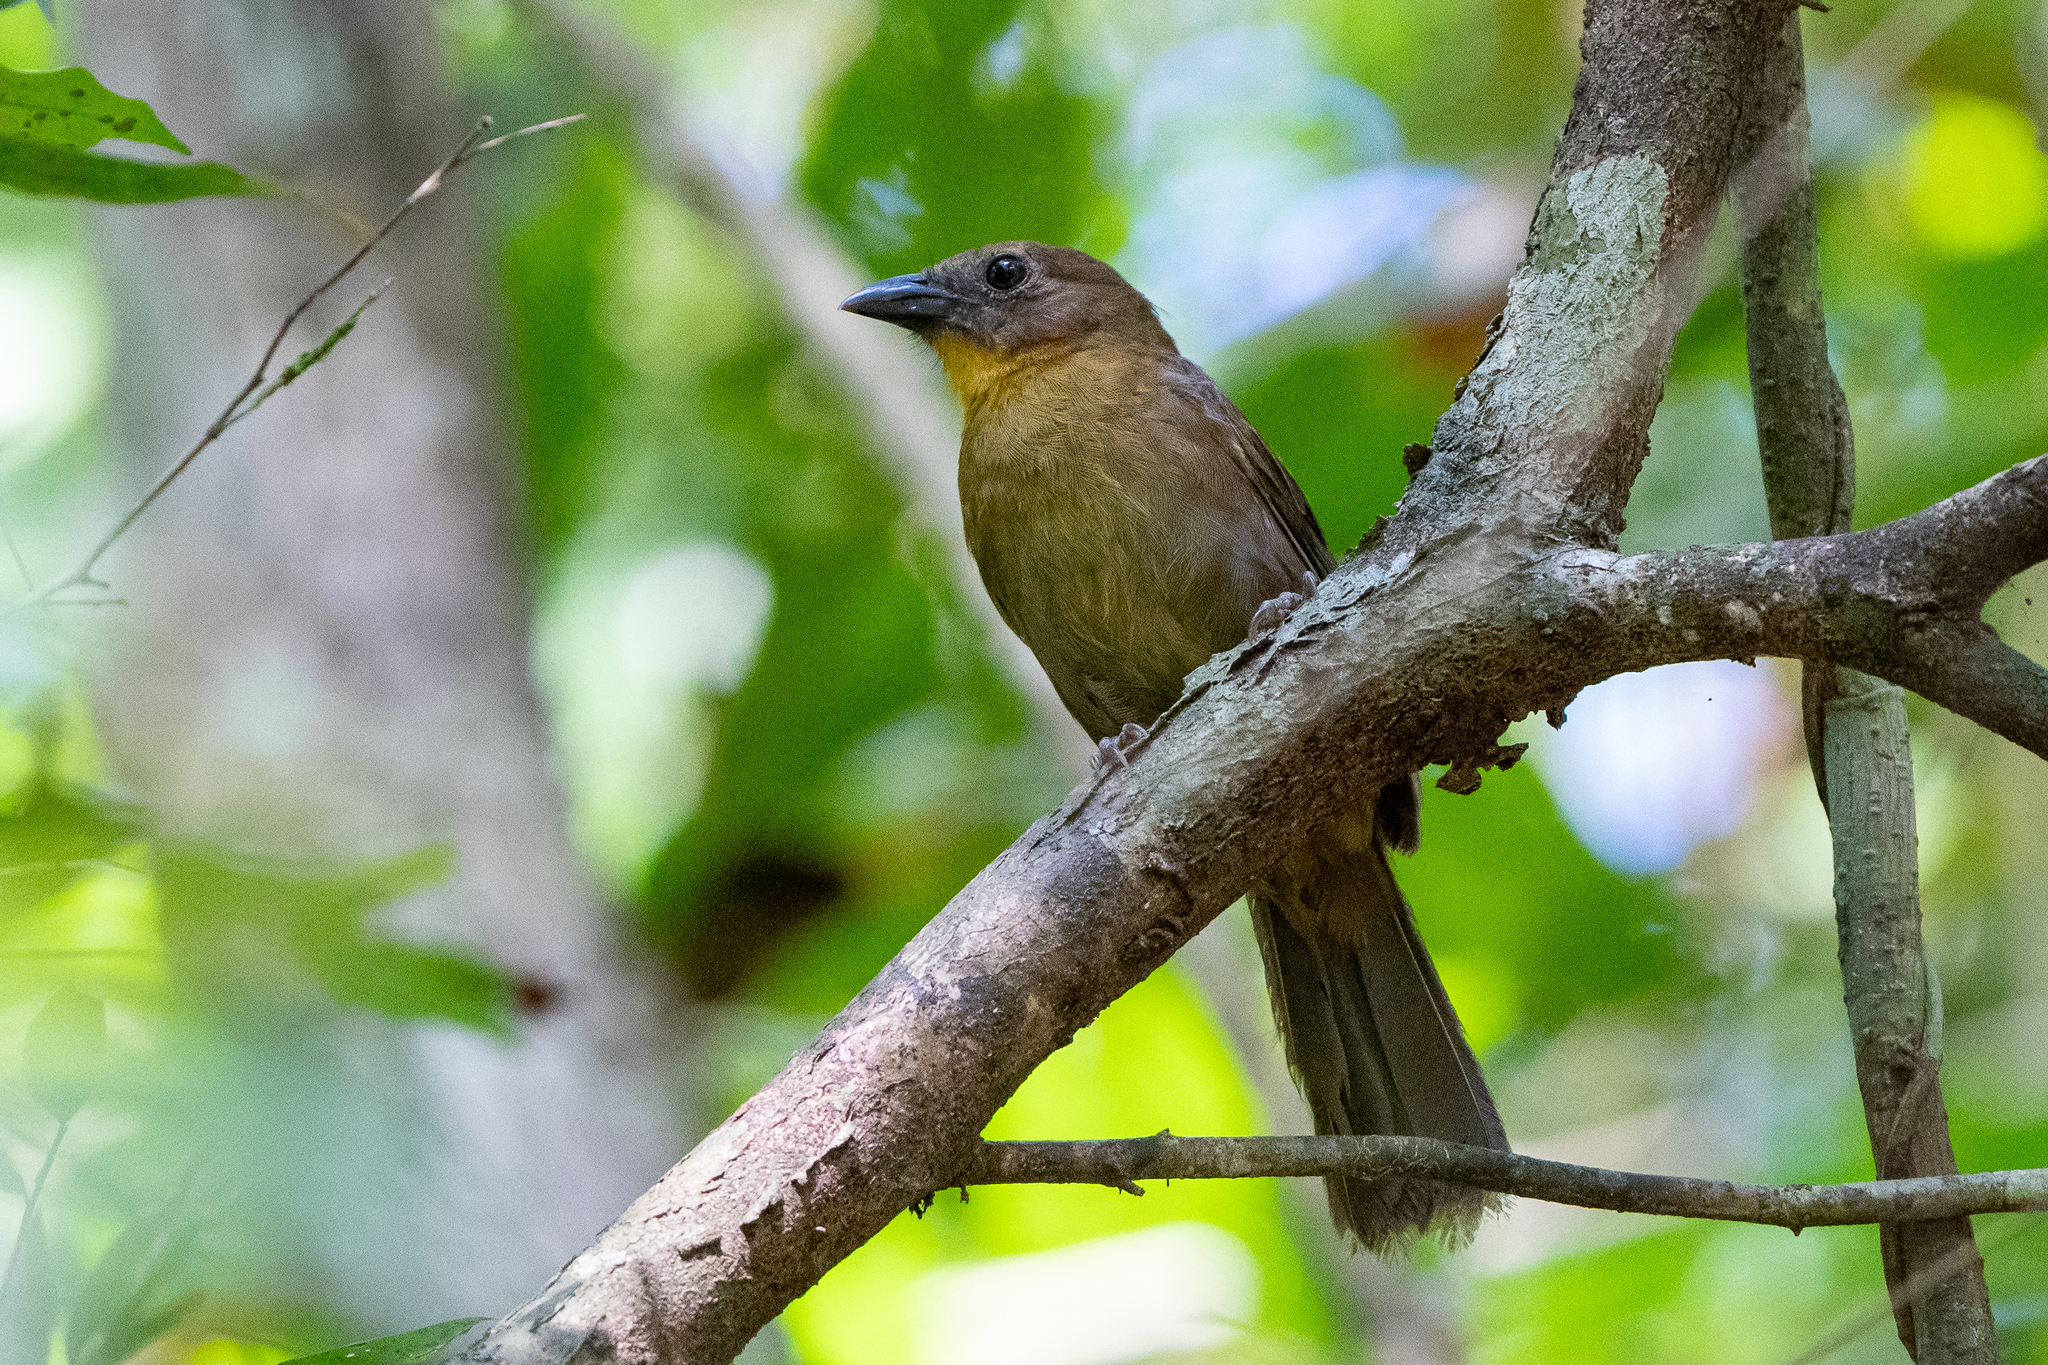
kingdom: Animalia
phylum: Chordata
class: Aves
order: Passeriformes
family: Cardinalidae
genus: Habia
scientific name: Habia fuscicauda
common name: Red-throated ant-tanager
